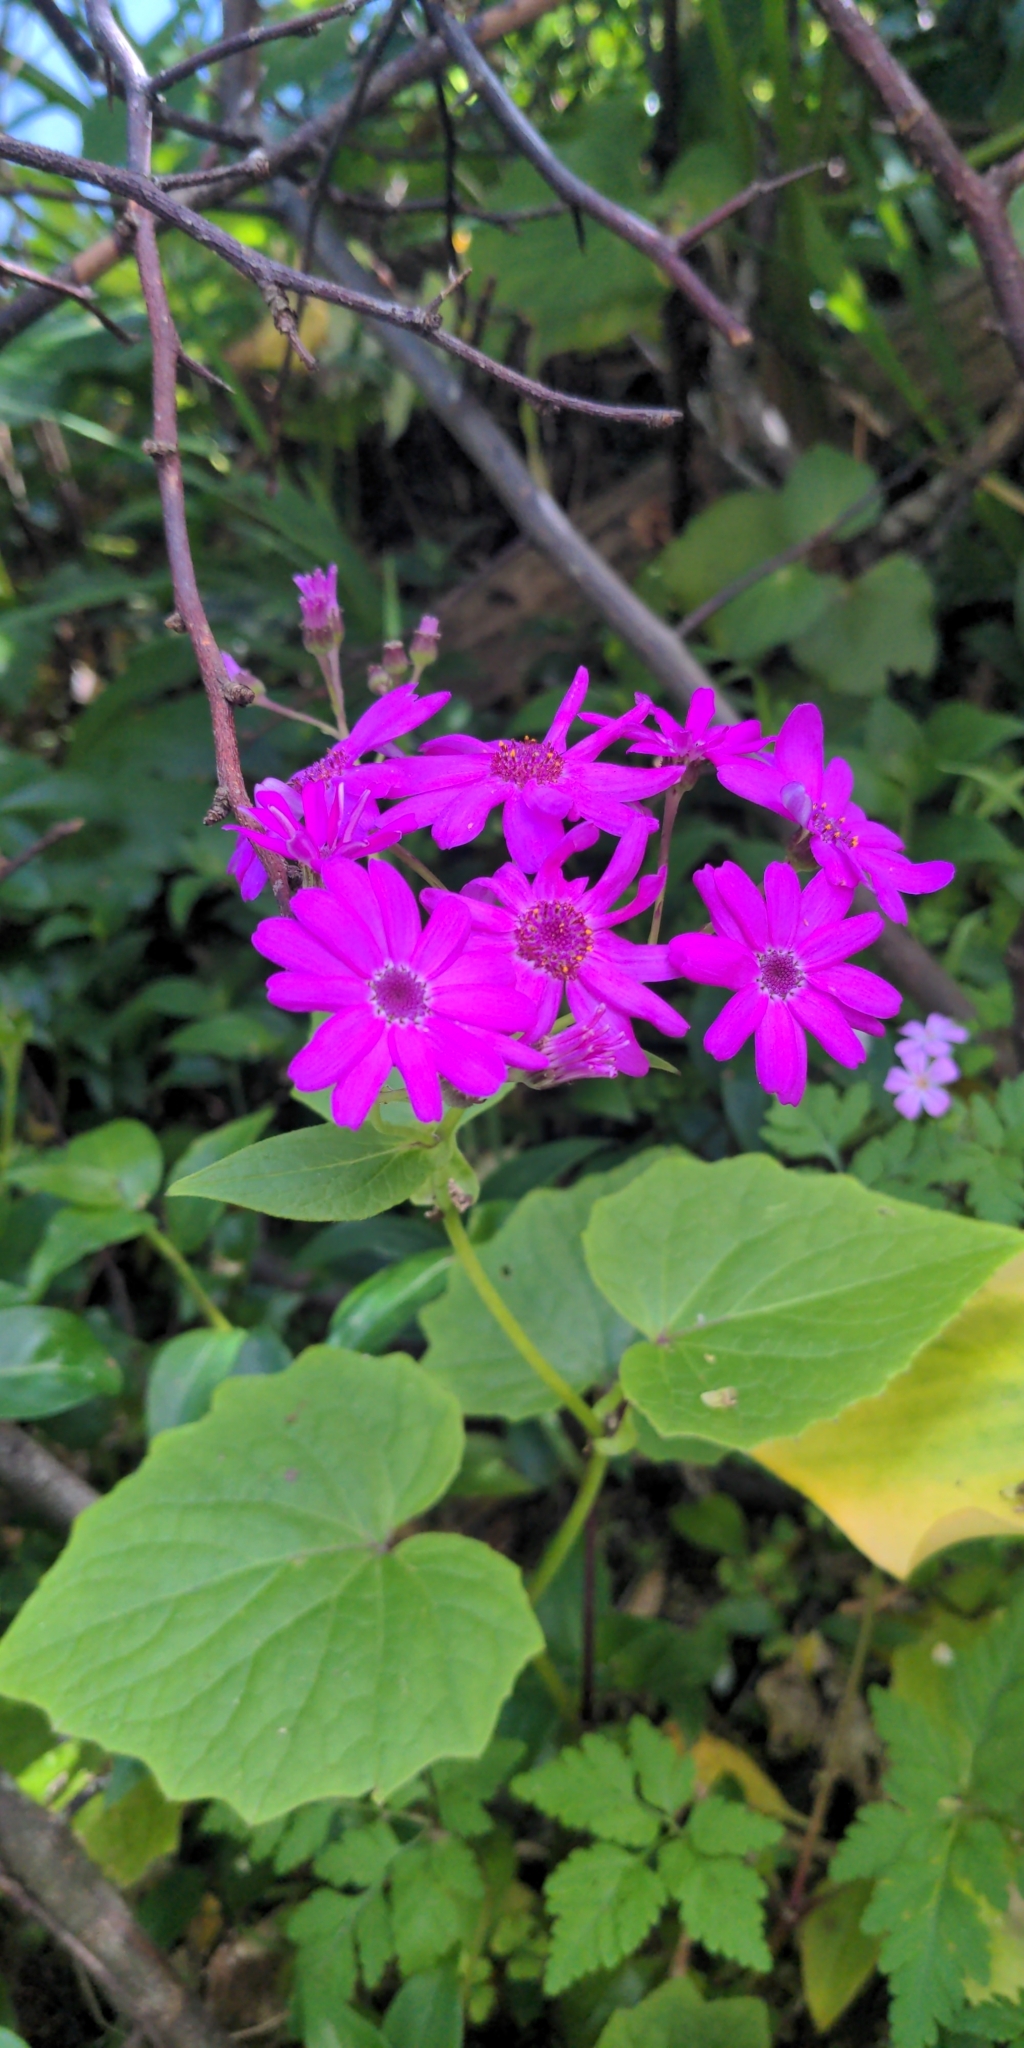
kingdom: Plantae
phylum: Tracheophyta
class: Magnoliopsida
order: Asterales
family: Asteraceae
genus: Pericallis
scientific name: Pericallis hybrida
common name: Cineraria
